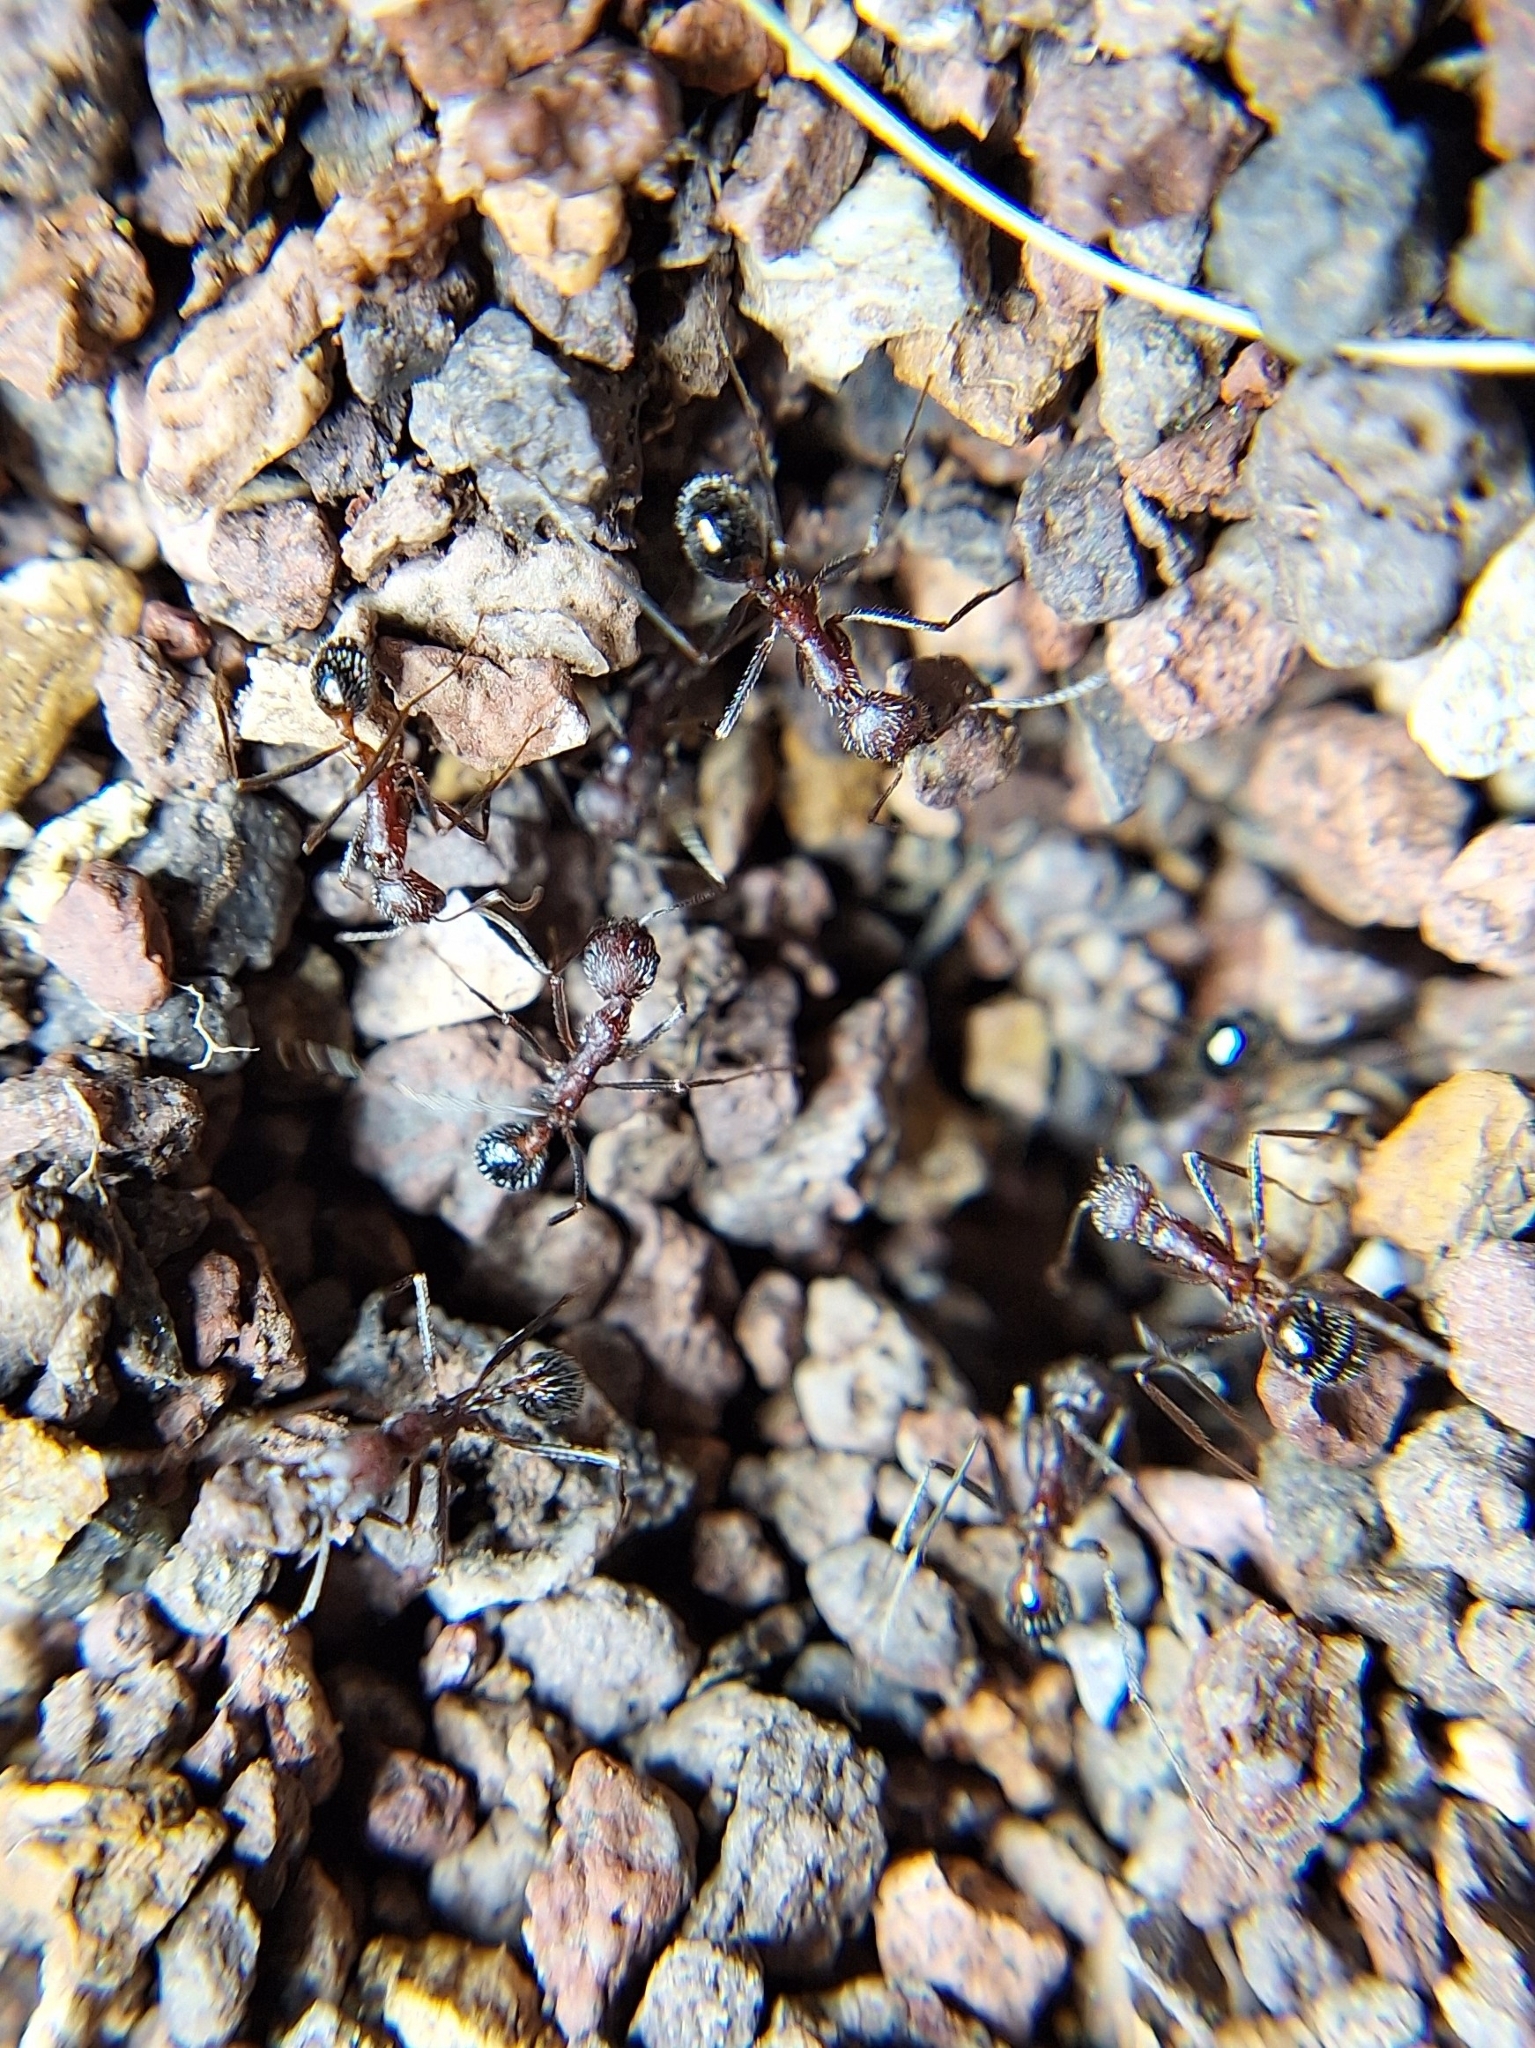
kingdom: Animalia
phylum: Arthropoda
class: Insecta
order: Hymenoptera
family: Formicidae
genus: Novomessor
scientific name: Novomessor albisetosa
